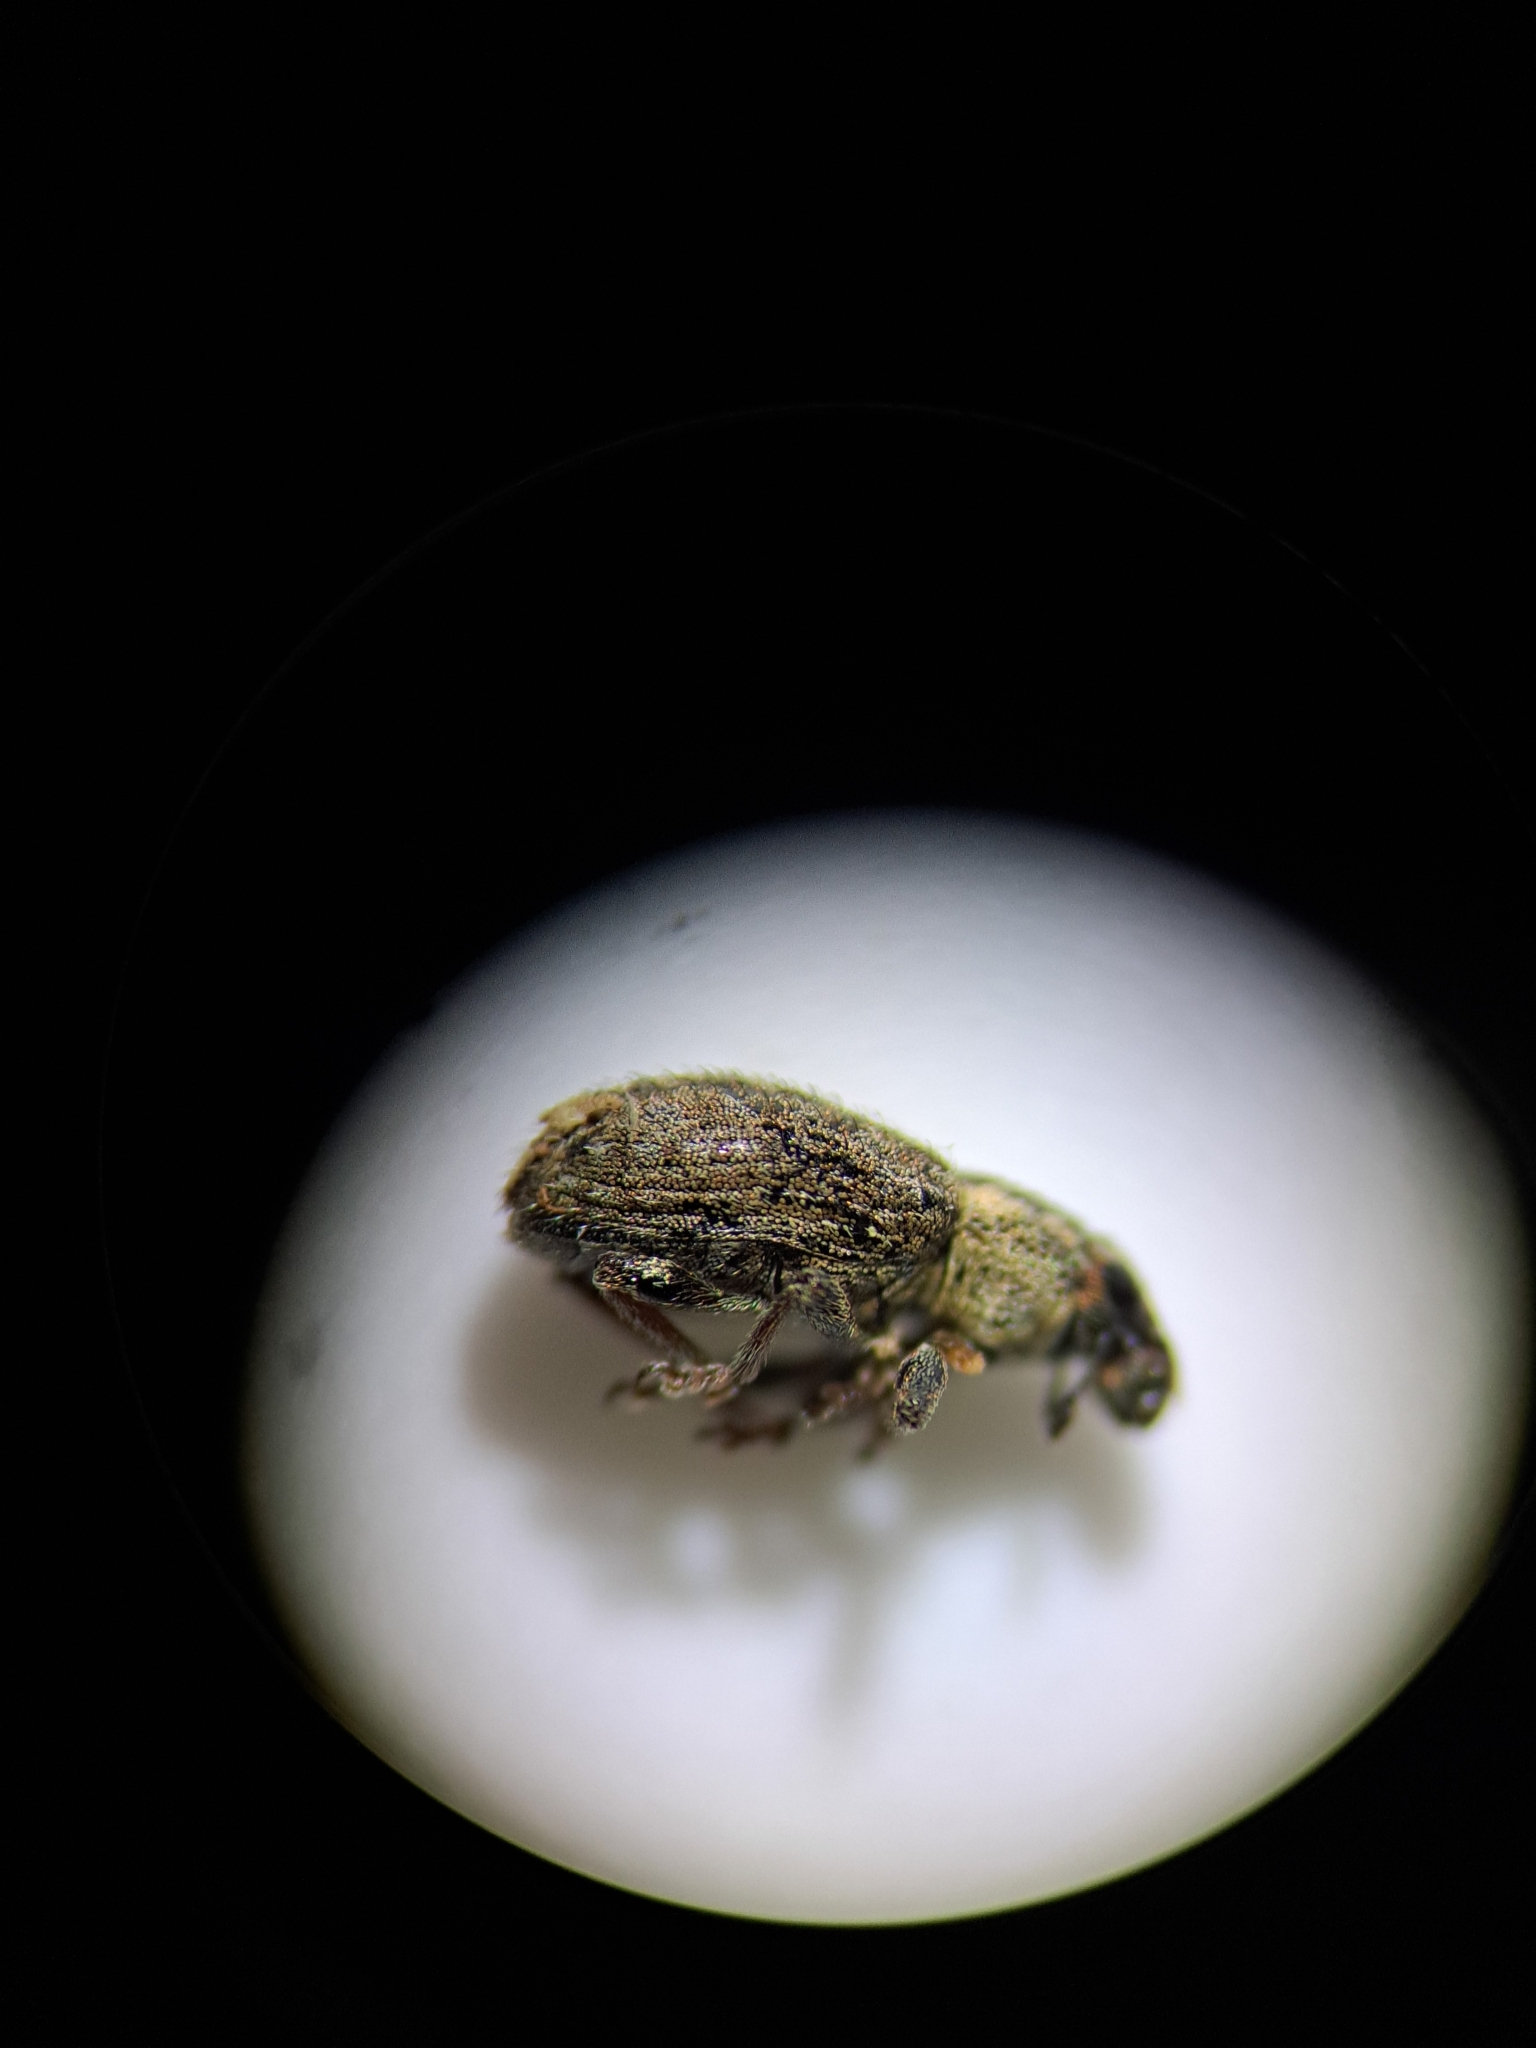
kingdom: Animalia
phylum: Arthropoda
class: Insecta
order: Coleoptera
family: Curculionidae
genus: Sitona
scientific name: Sitona hispidulus
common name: Clover weevil
